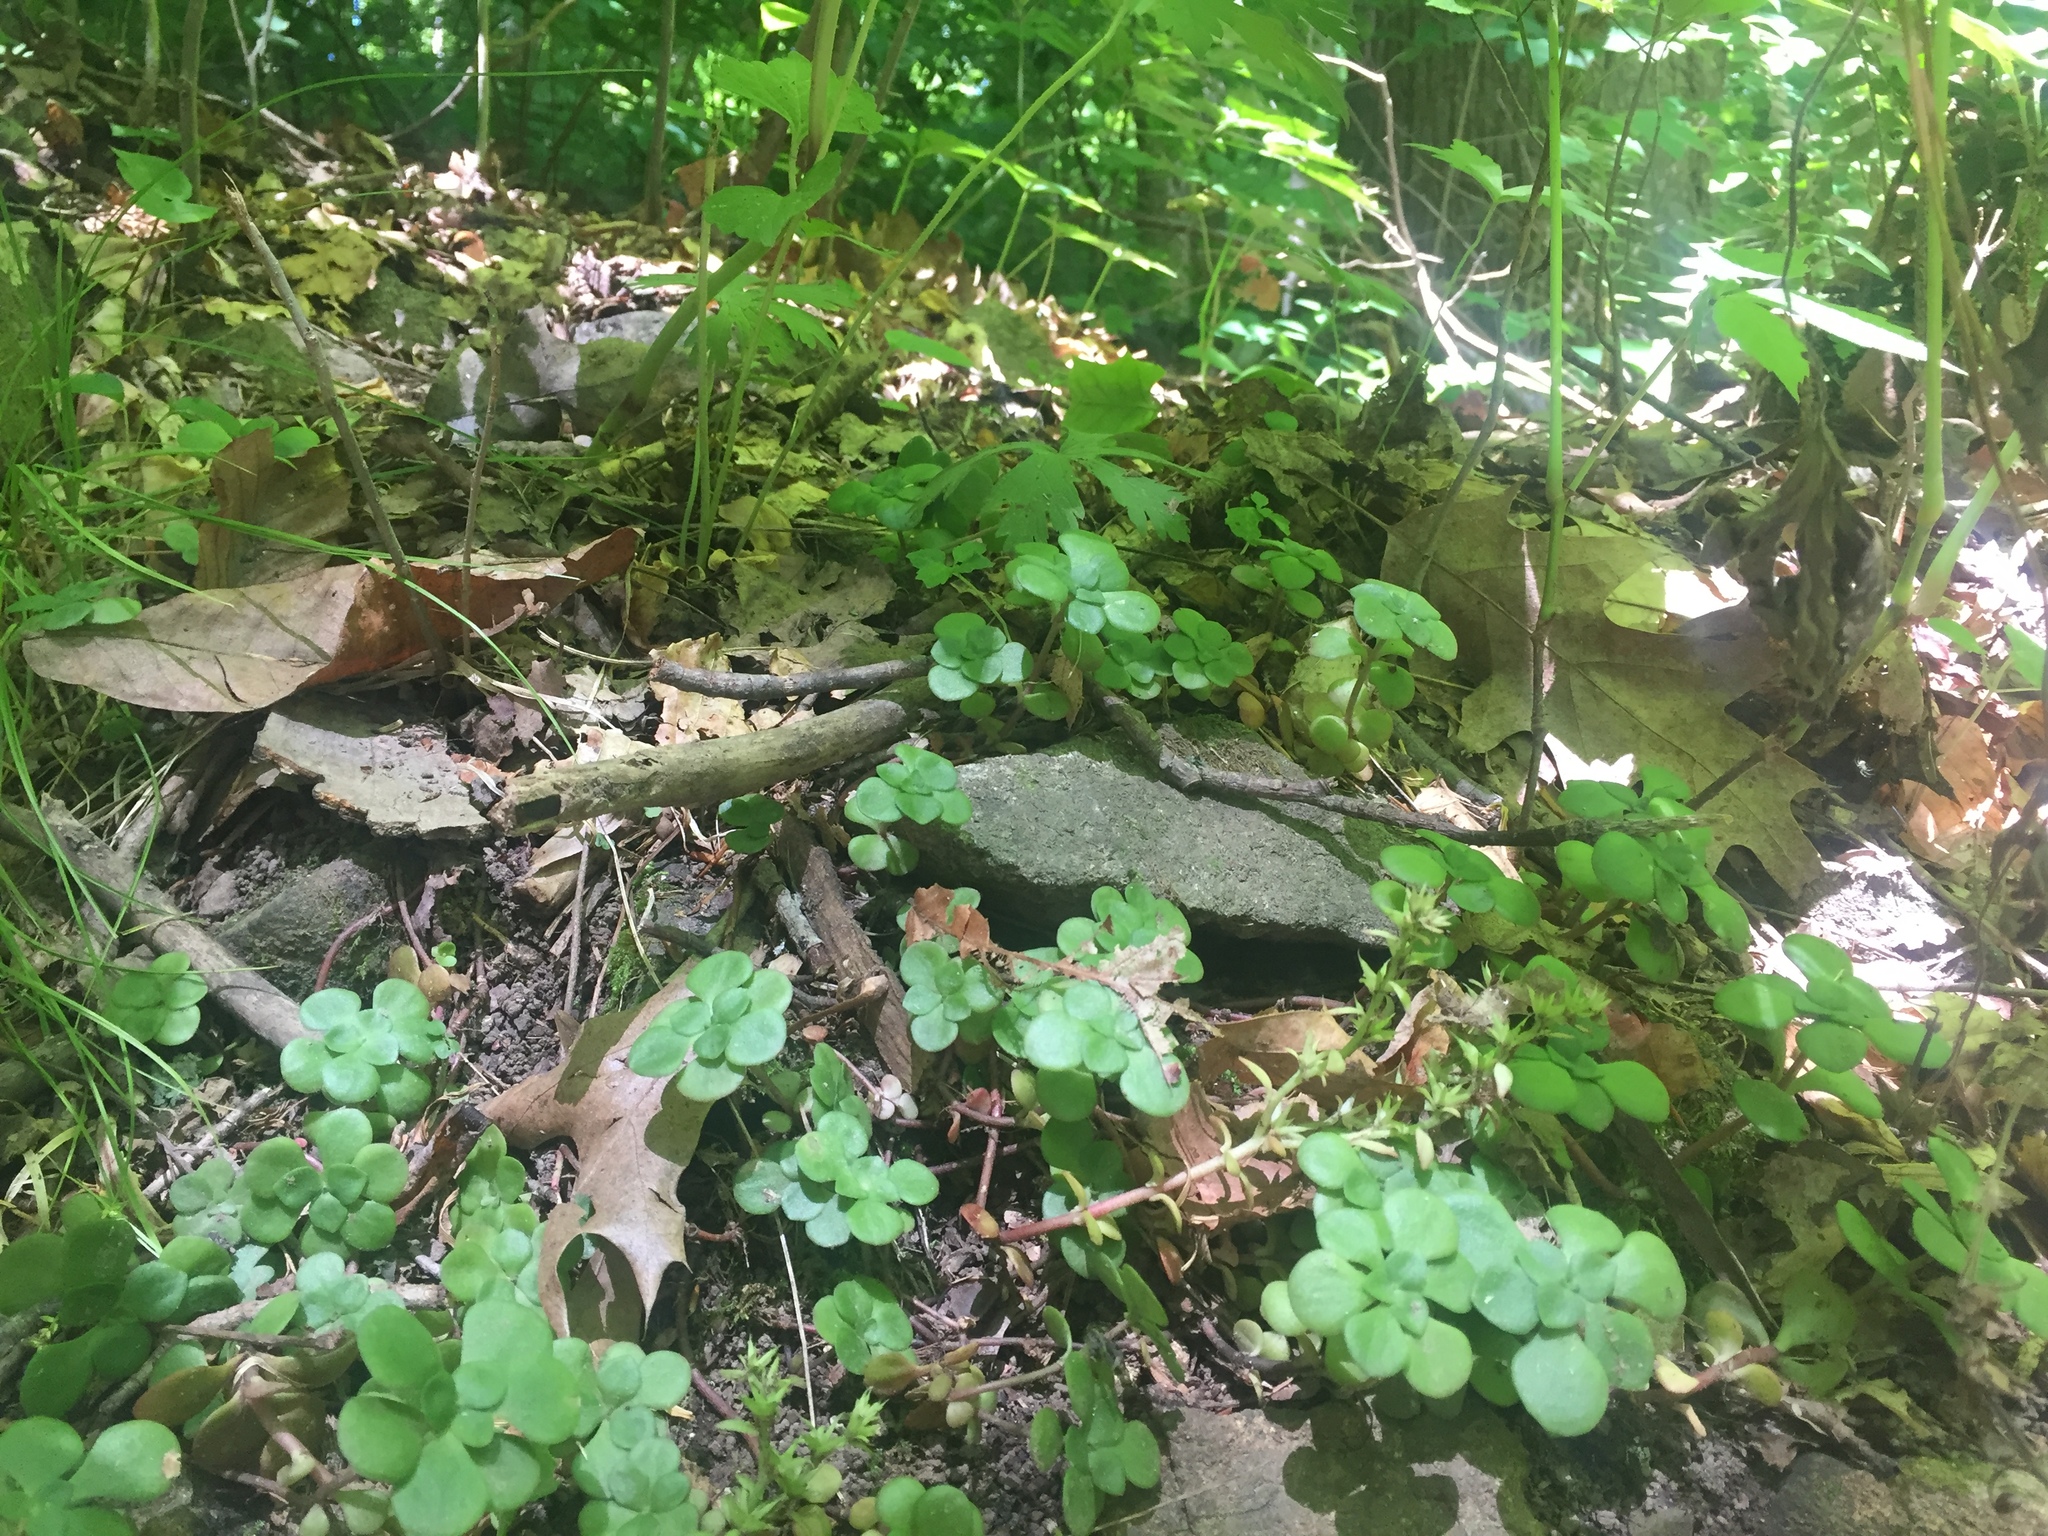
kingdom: Plantae
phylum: Tracheophyta
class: Magnoliopsida
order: Saxifragales
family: Crassulaceae
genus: Sedum
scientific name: Sedum ternatum
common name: Wild stonecrop
